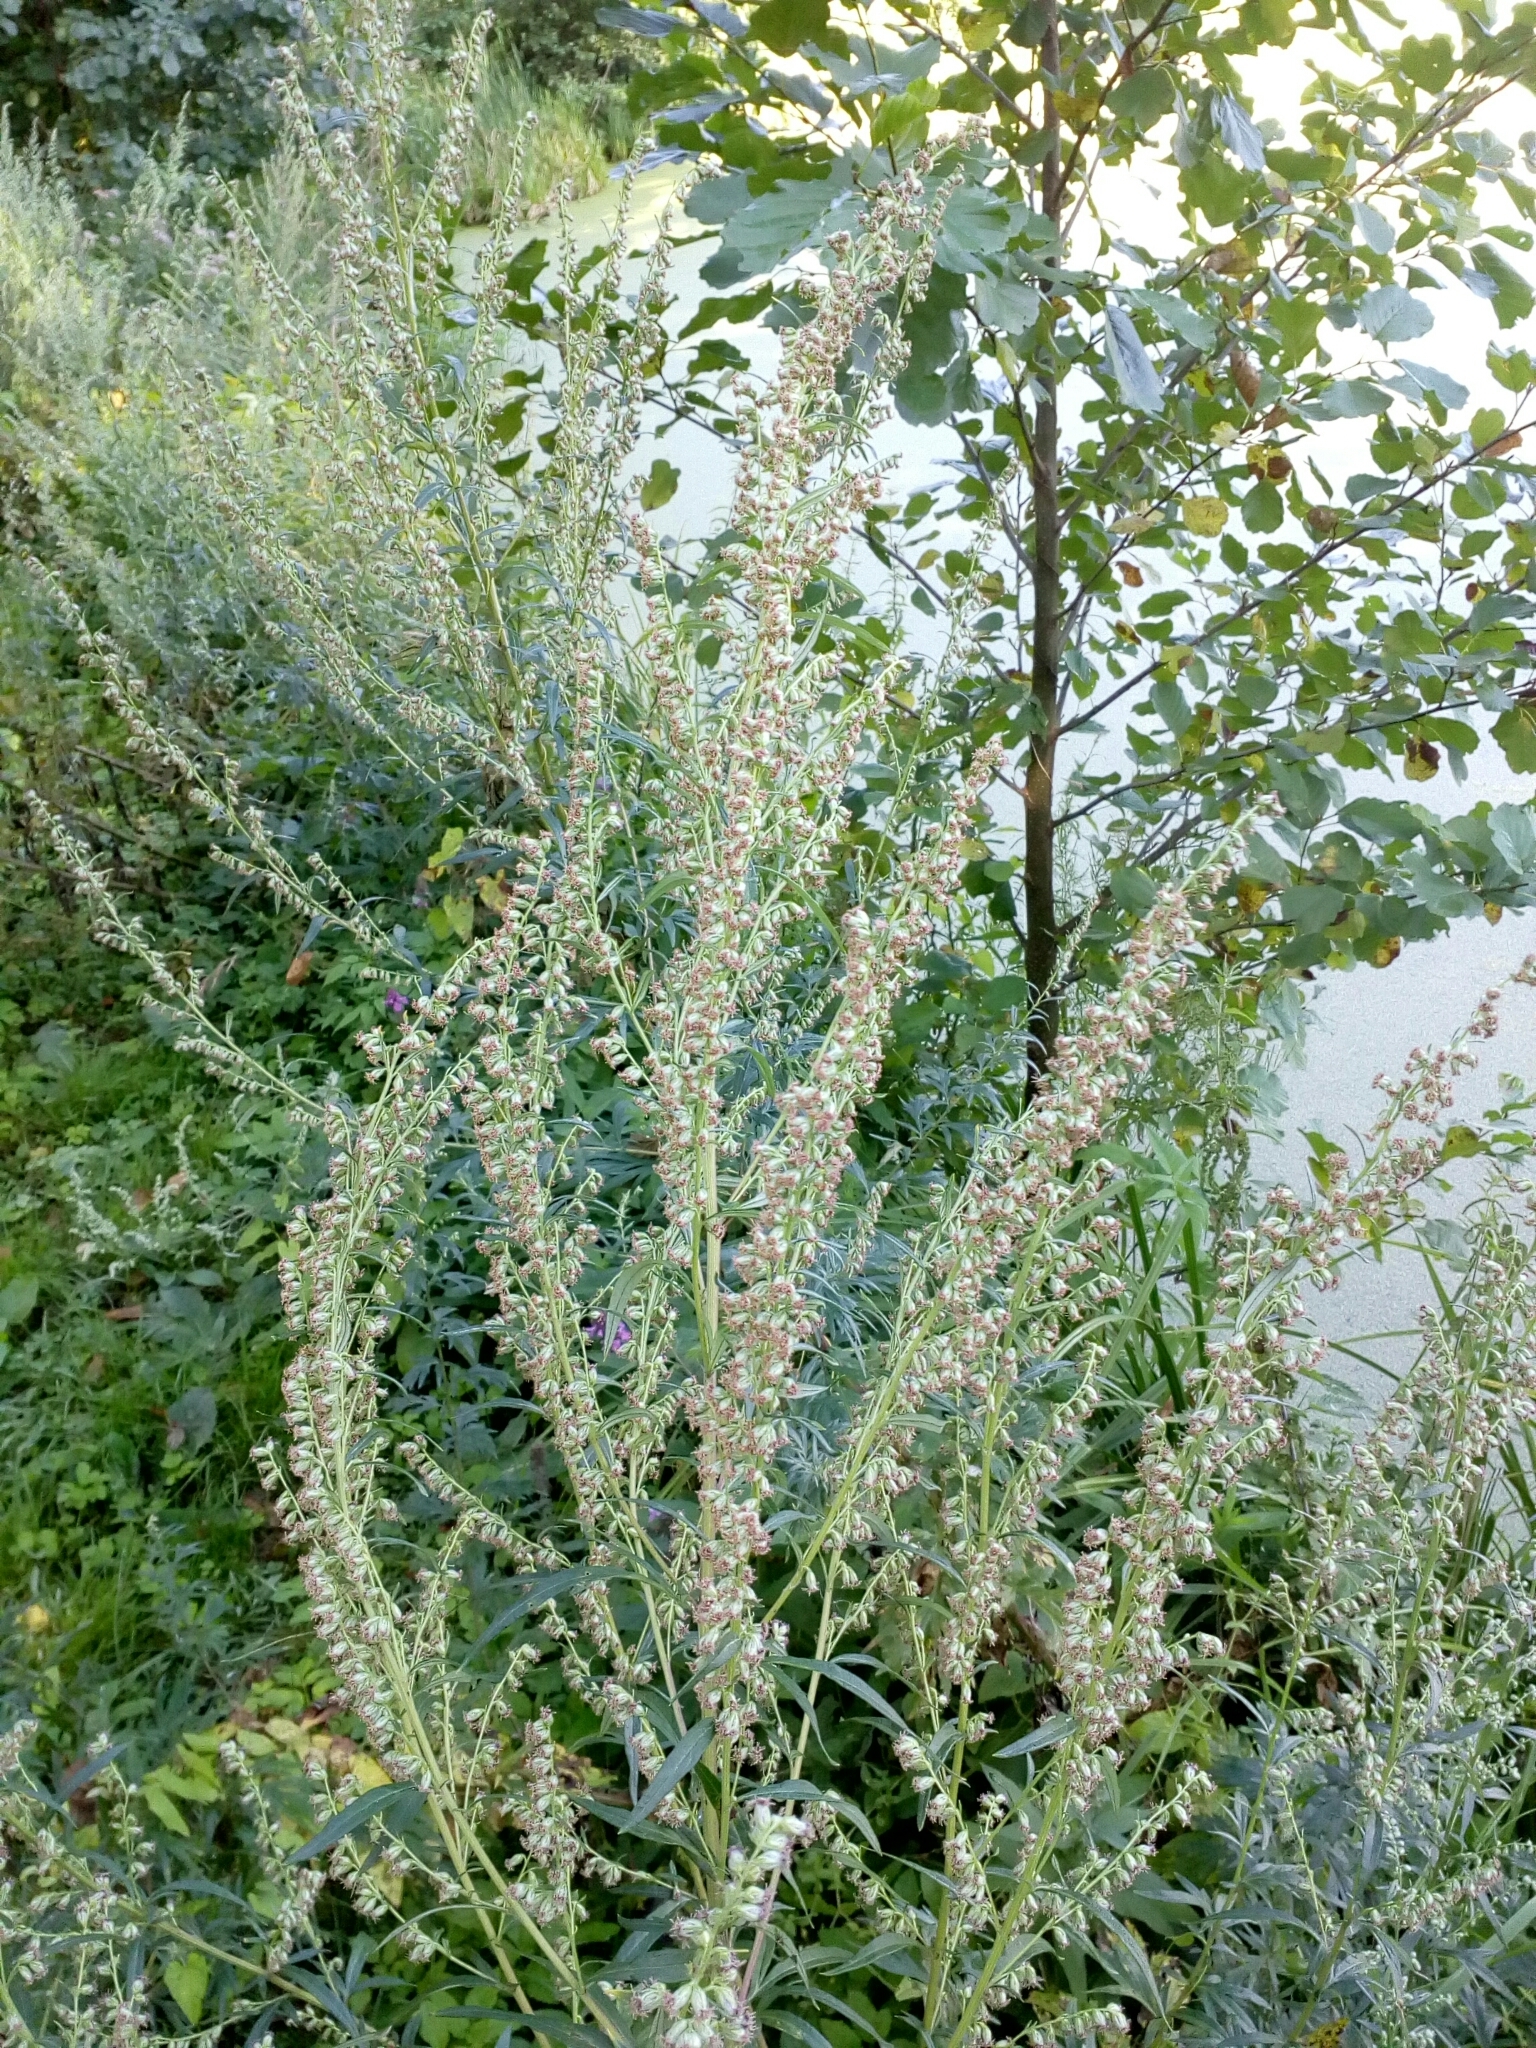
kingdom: Plantae
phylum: Tracheophyta
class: Magnoliopsida
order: Asterales
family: Asteraceae
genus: Artemisia
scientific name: Artemisia vulgaris
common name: Mugwort
